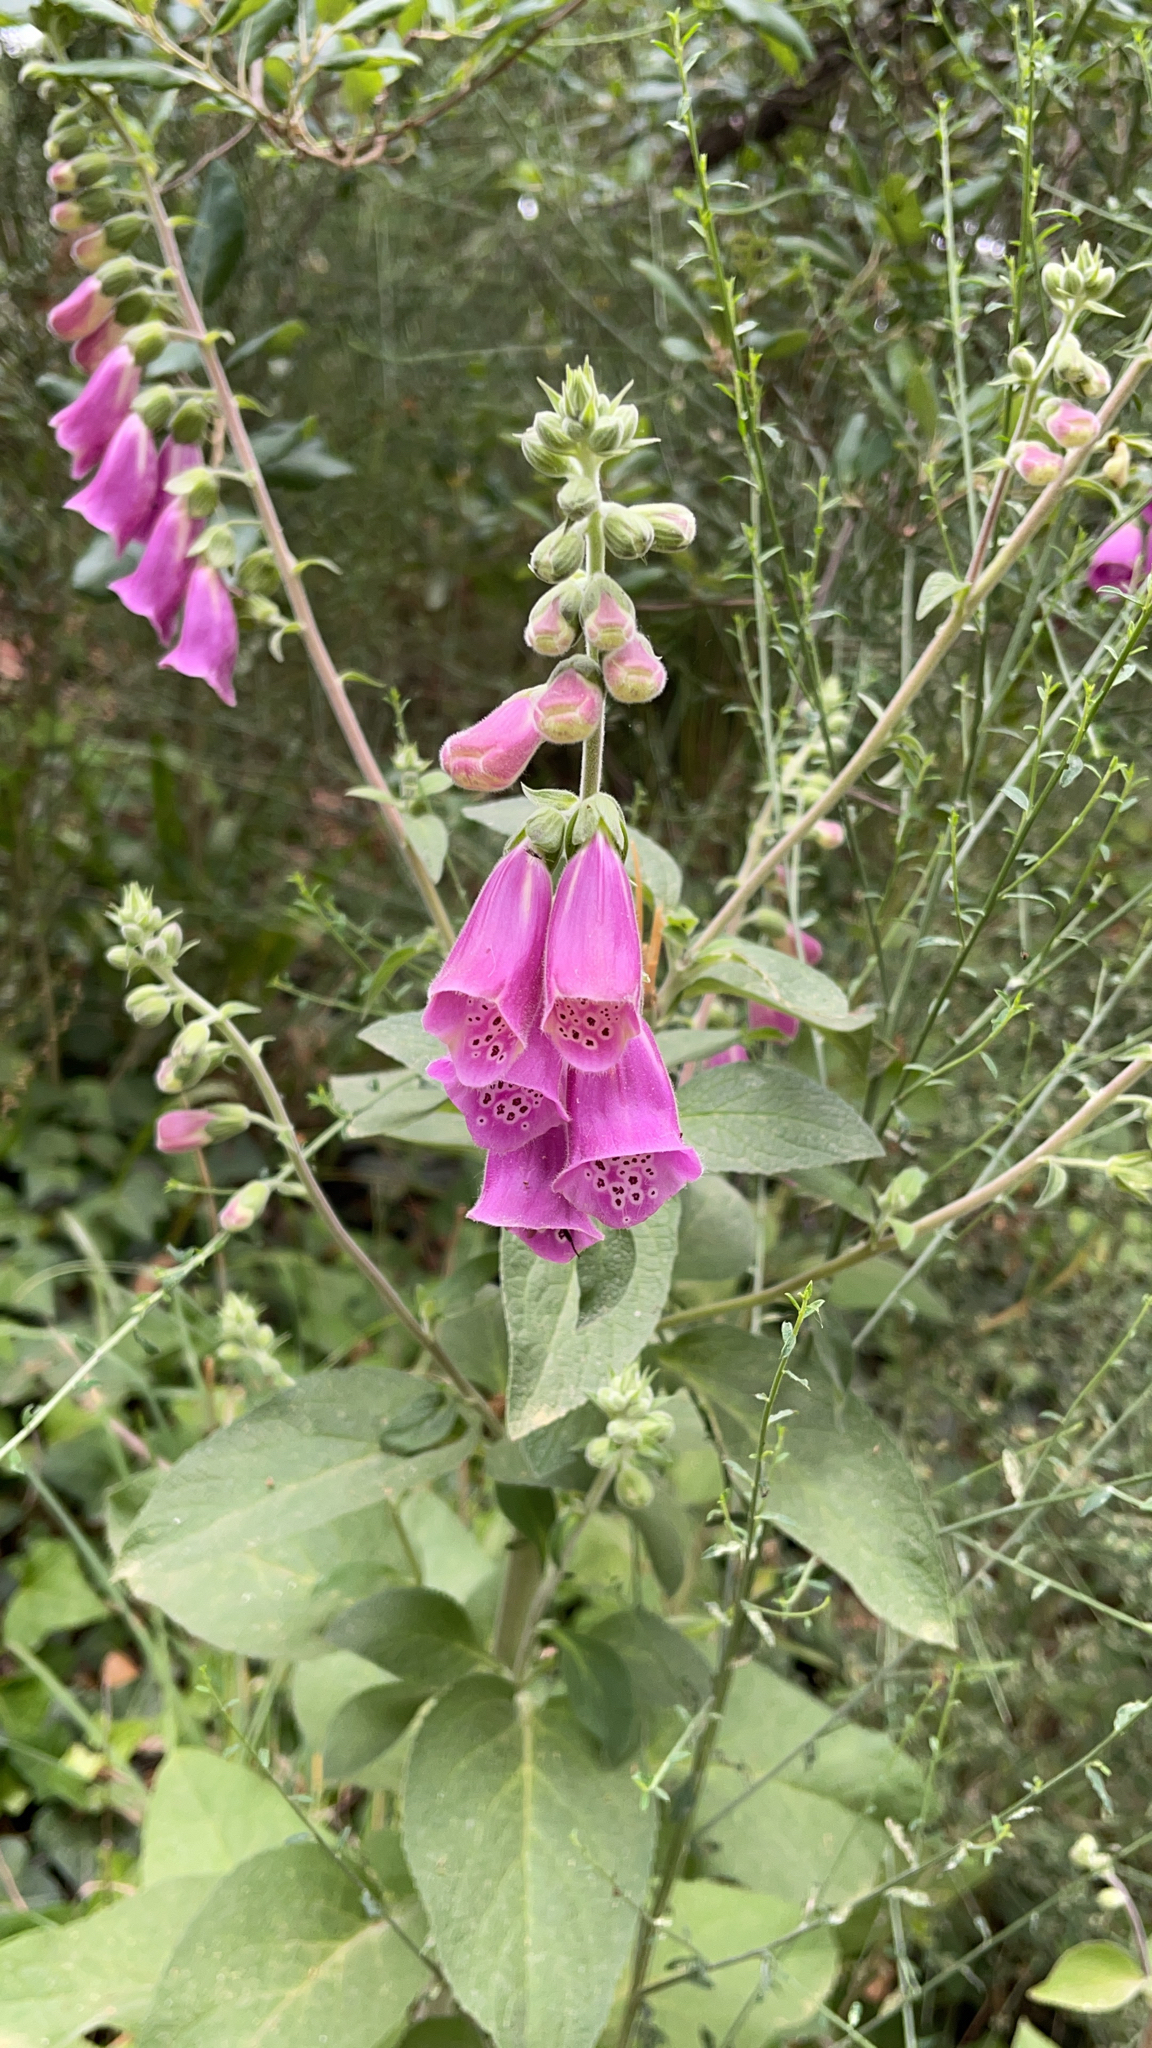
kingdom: Plantae
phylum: Tracheophyta
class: Magnoliopsida
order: Lamiales
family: Plantaginaceae
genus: Digitalis
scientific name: Digitalis purpurea
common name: Foxglove
